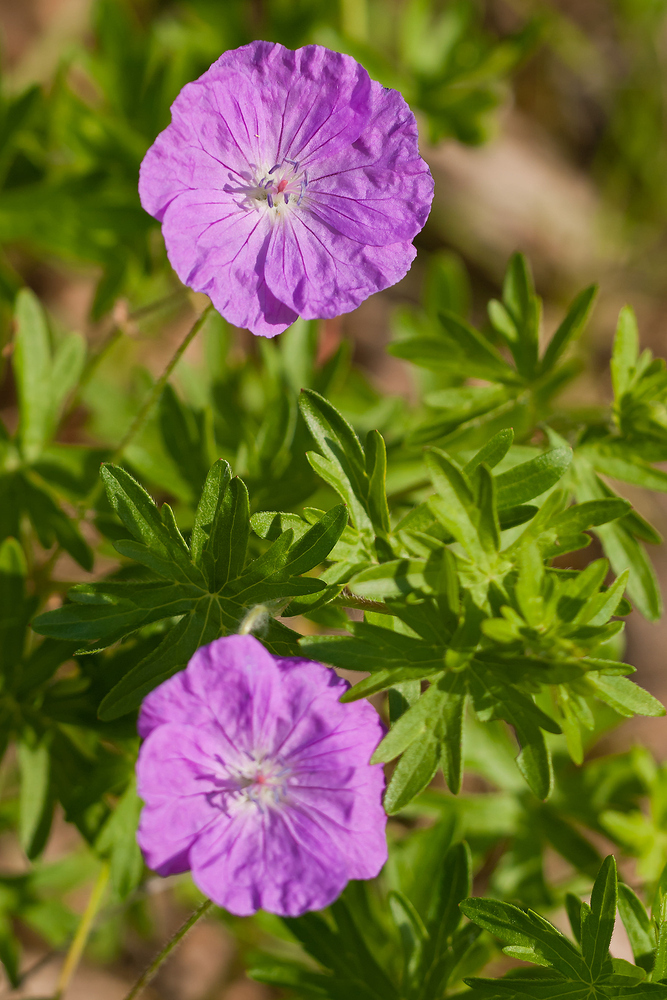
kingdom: Plantae
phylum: Tracheophyta
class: Magnoliopsida
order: Geraniales
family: Geraniaceae
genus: Geranium
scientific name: Geranium sanguineum
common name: Bloody crane's-bill
